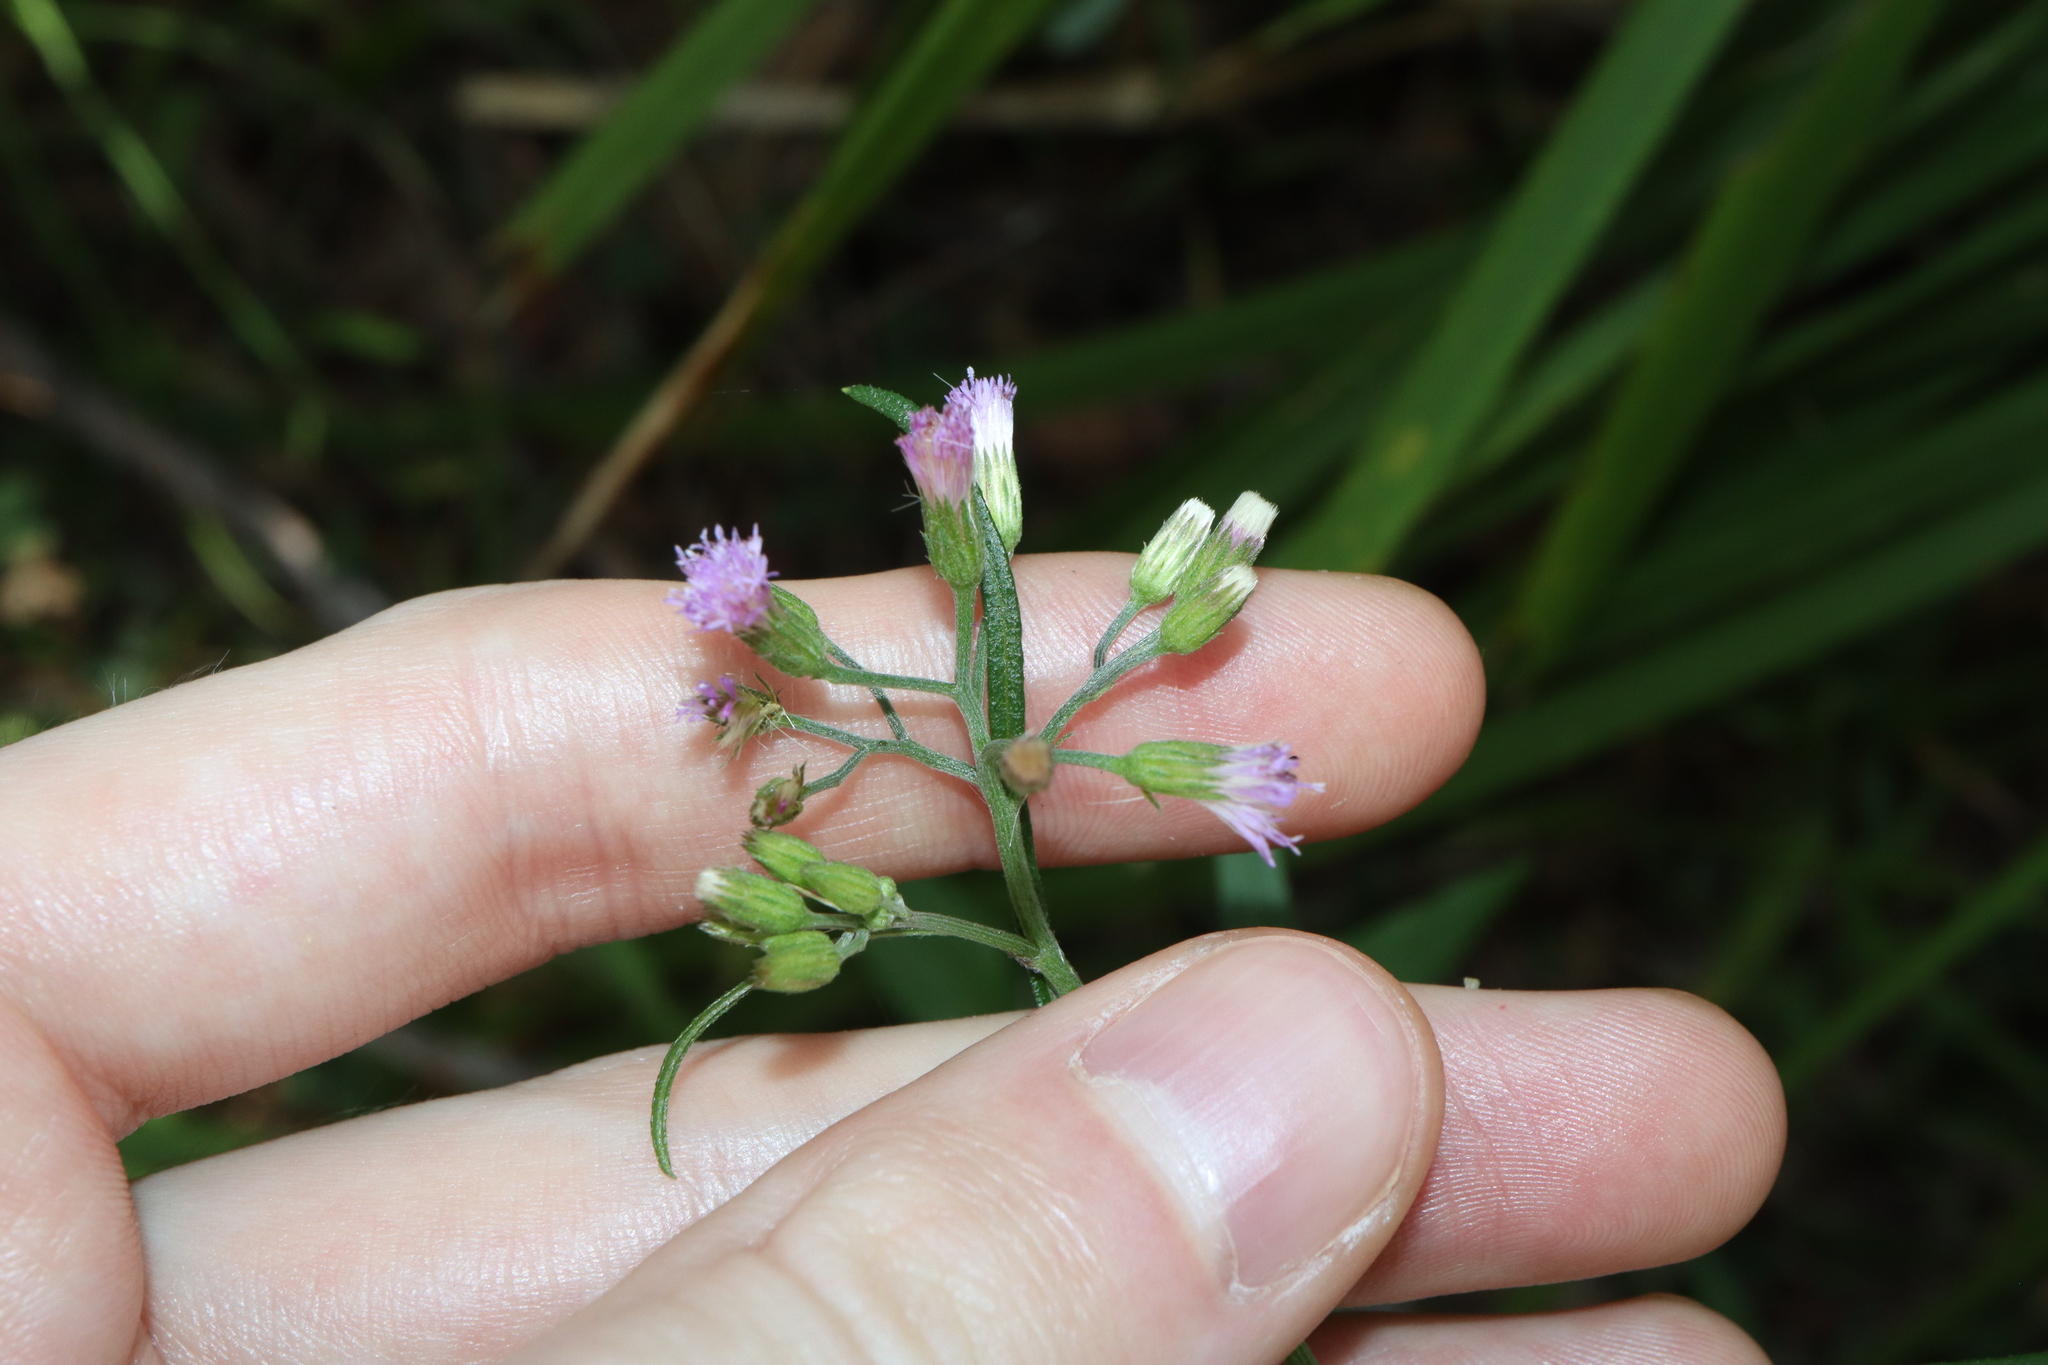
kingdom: Plantae
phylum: Tracheophyta
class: Magnoliopsida
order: Asterales
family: Asteraceae
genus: Cyanthillium
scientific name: Cyanthillium cinereum
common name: Little ironweed
